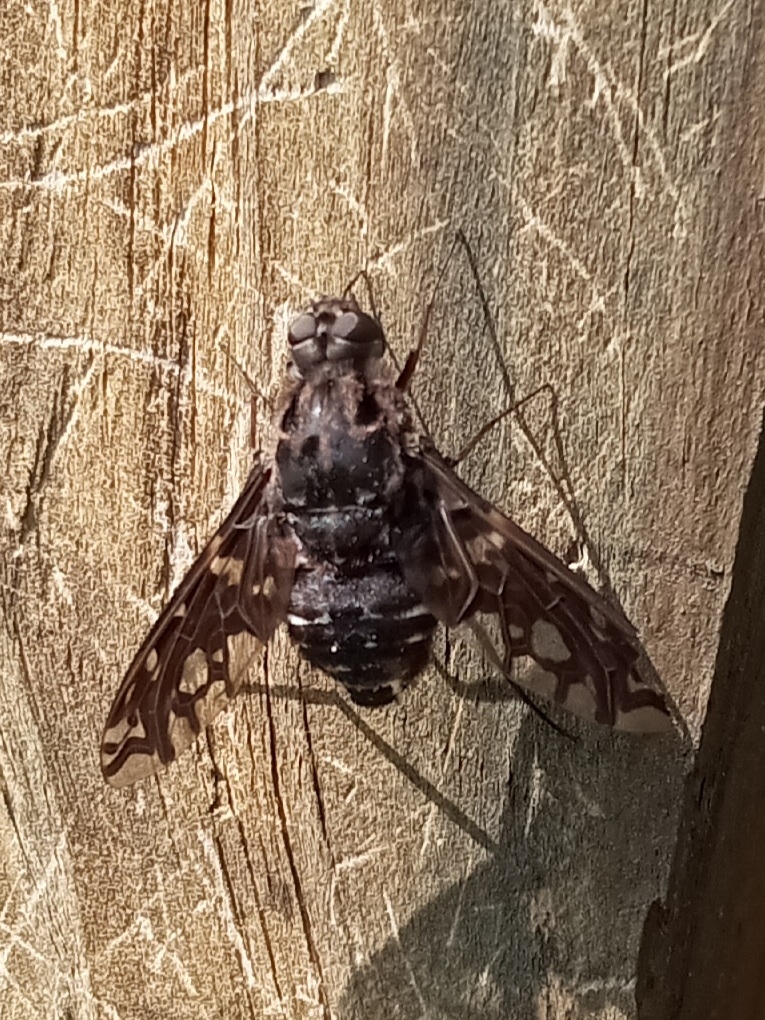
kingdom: Animalia
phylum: Arthropoda
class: Insecta
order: Diptera
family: Bombyliidae
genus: Xenox
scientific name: Xenox tigrinus
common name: Tiger bee fly
